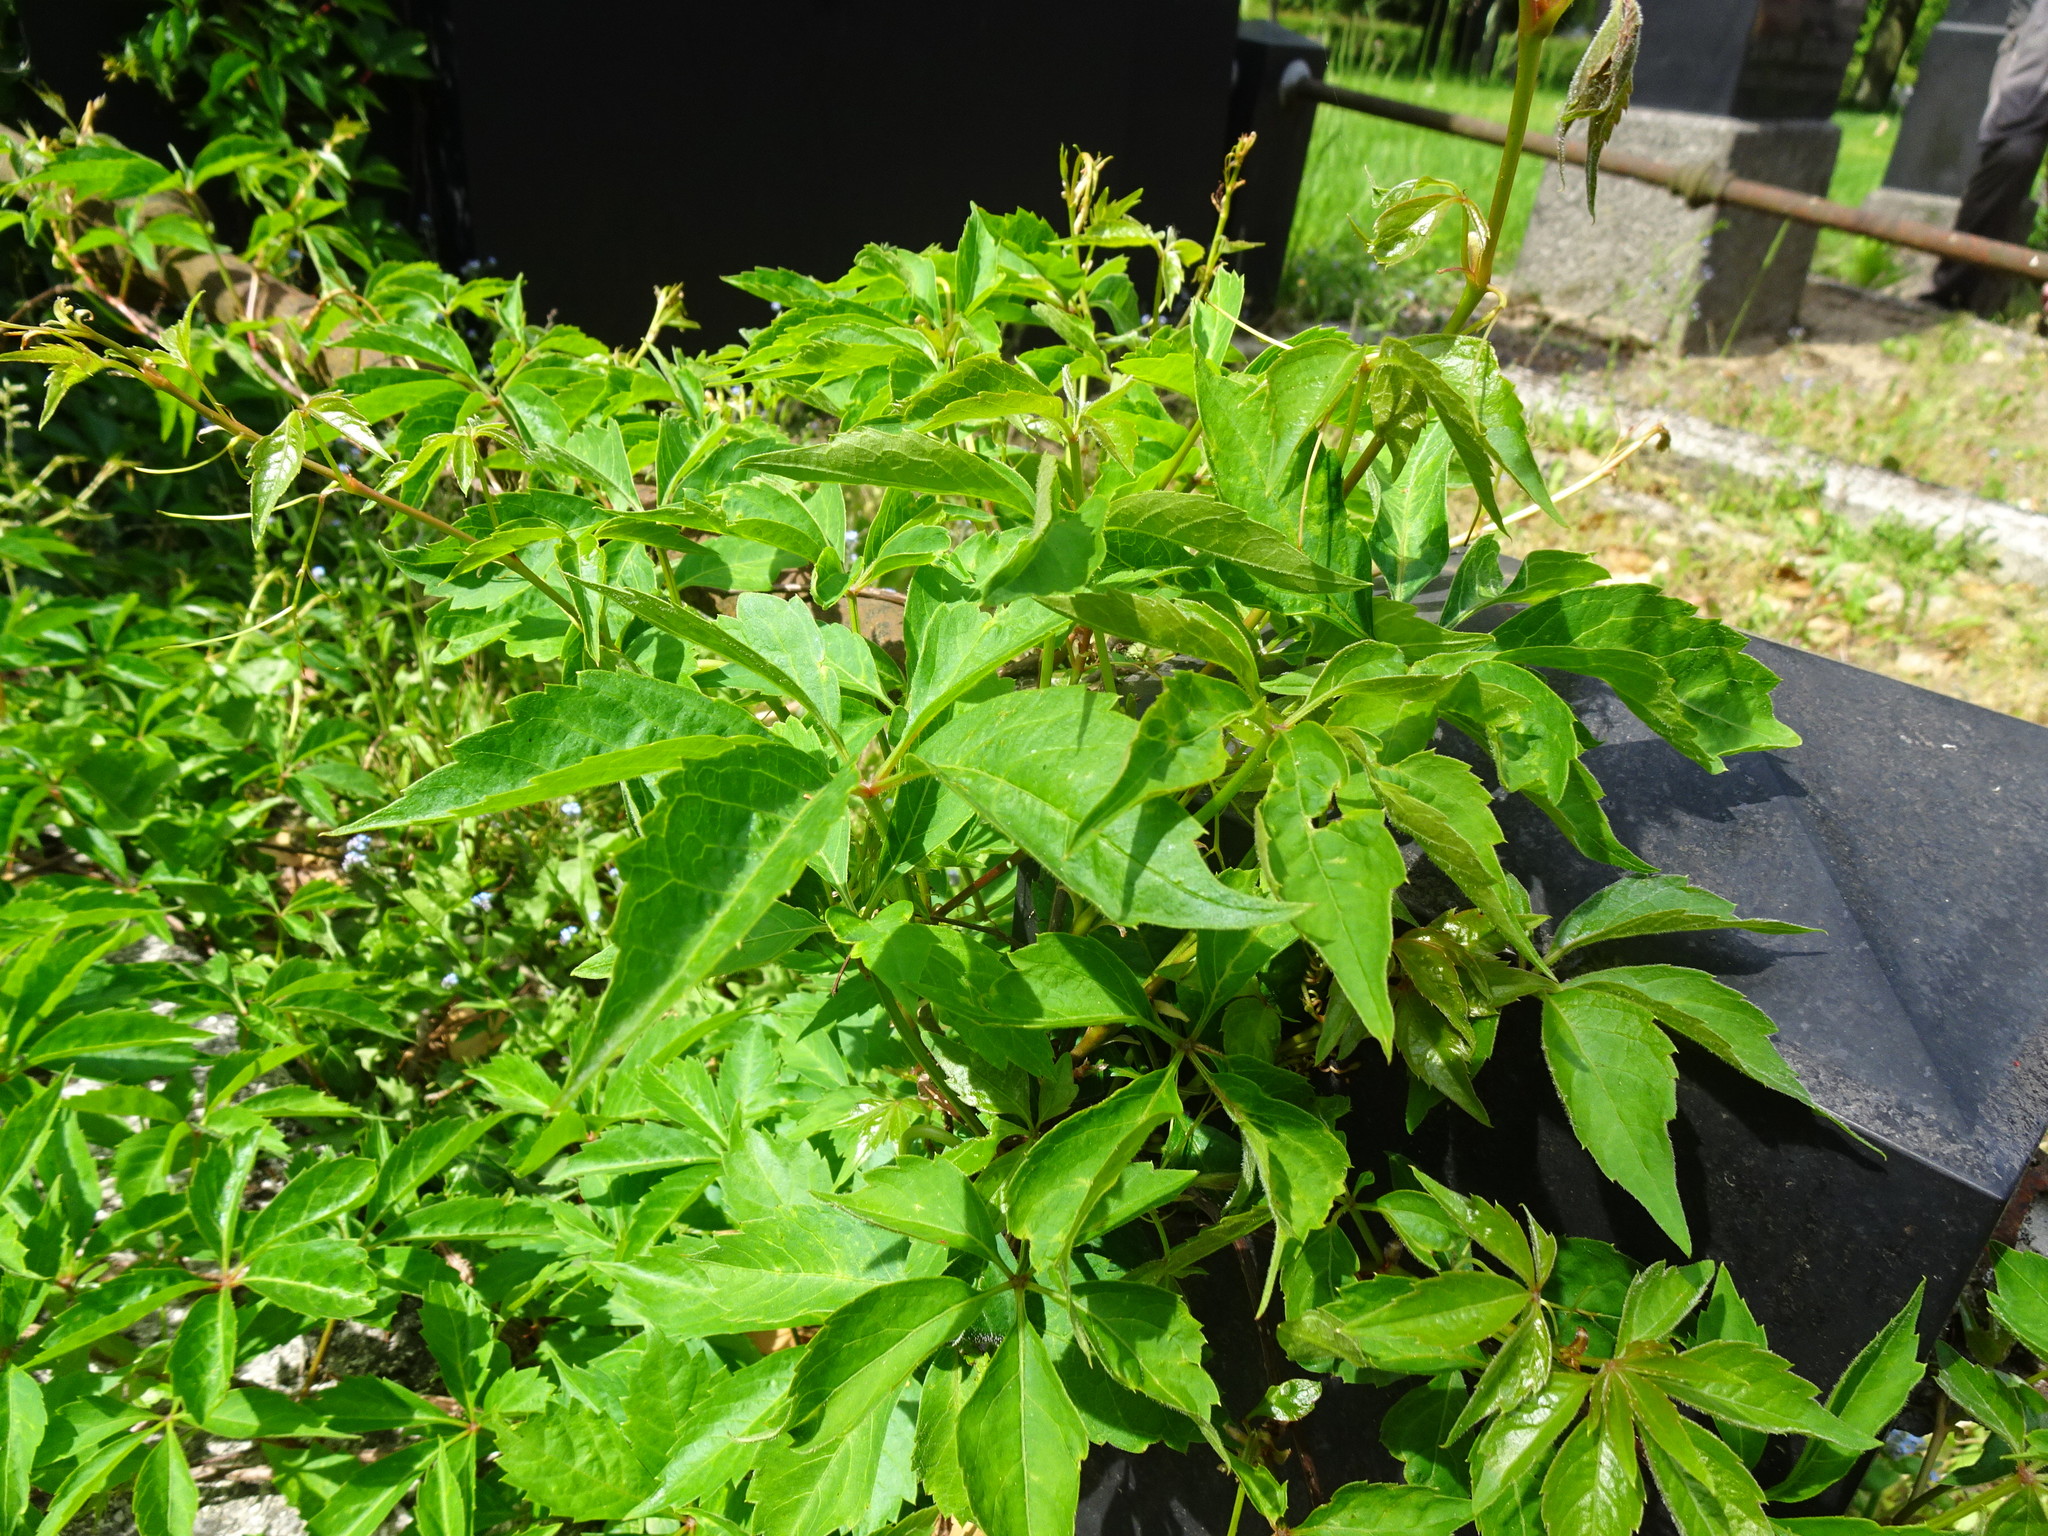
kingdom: Plantae
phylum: Tracheophyta
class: Magnoliopsida
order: Vitales
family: Vitaceae
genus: Parthenocissus
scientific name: Parthenocissus inserta
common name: False virginia-creeper
